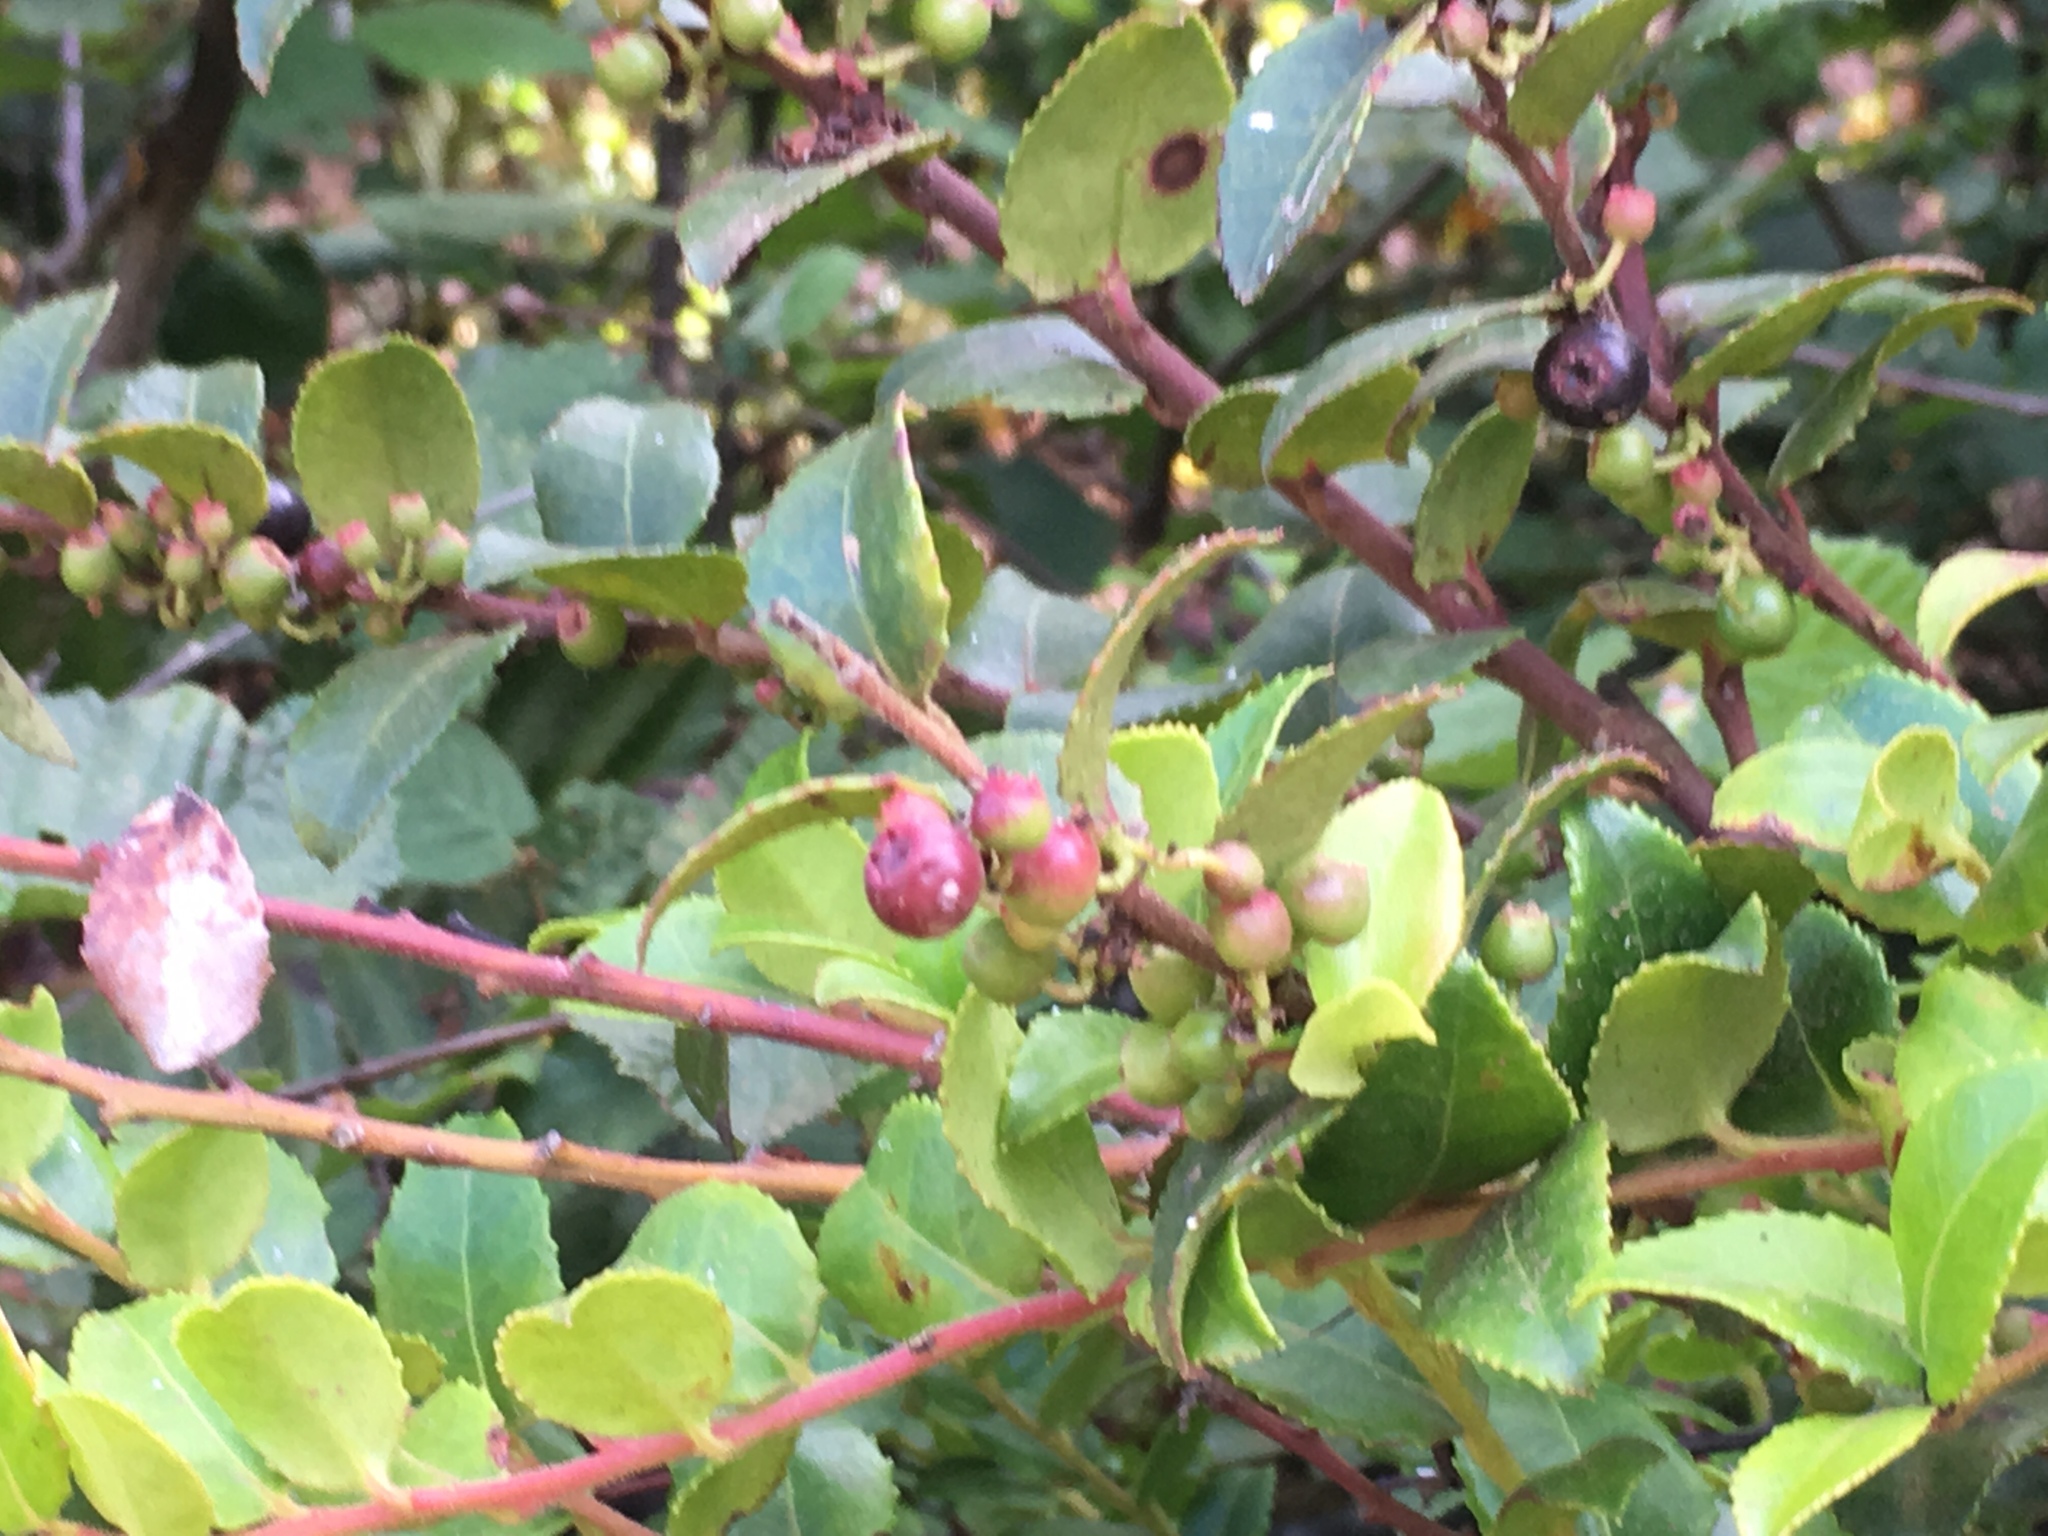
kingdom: Plantae
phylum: Tracheophyta
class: Magnoliopsida
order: Ericales
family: Ericaceae
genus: Vaccinium
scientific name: Vaccinium ovatum
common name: California-huckleberry
